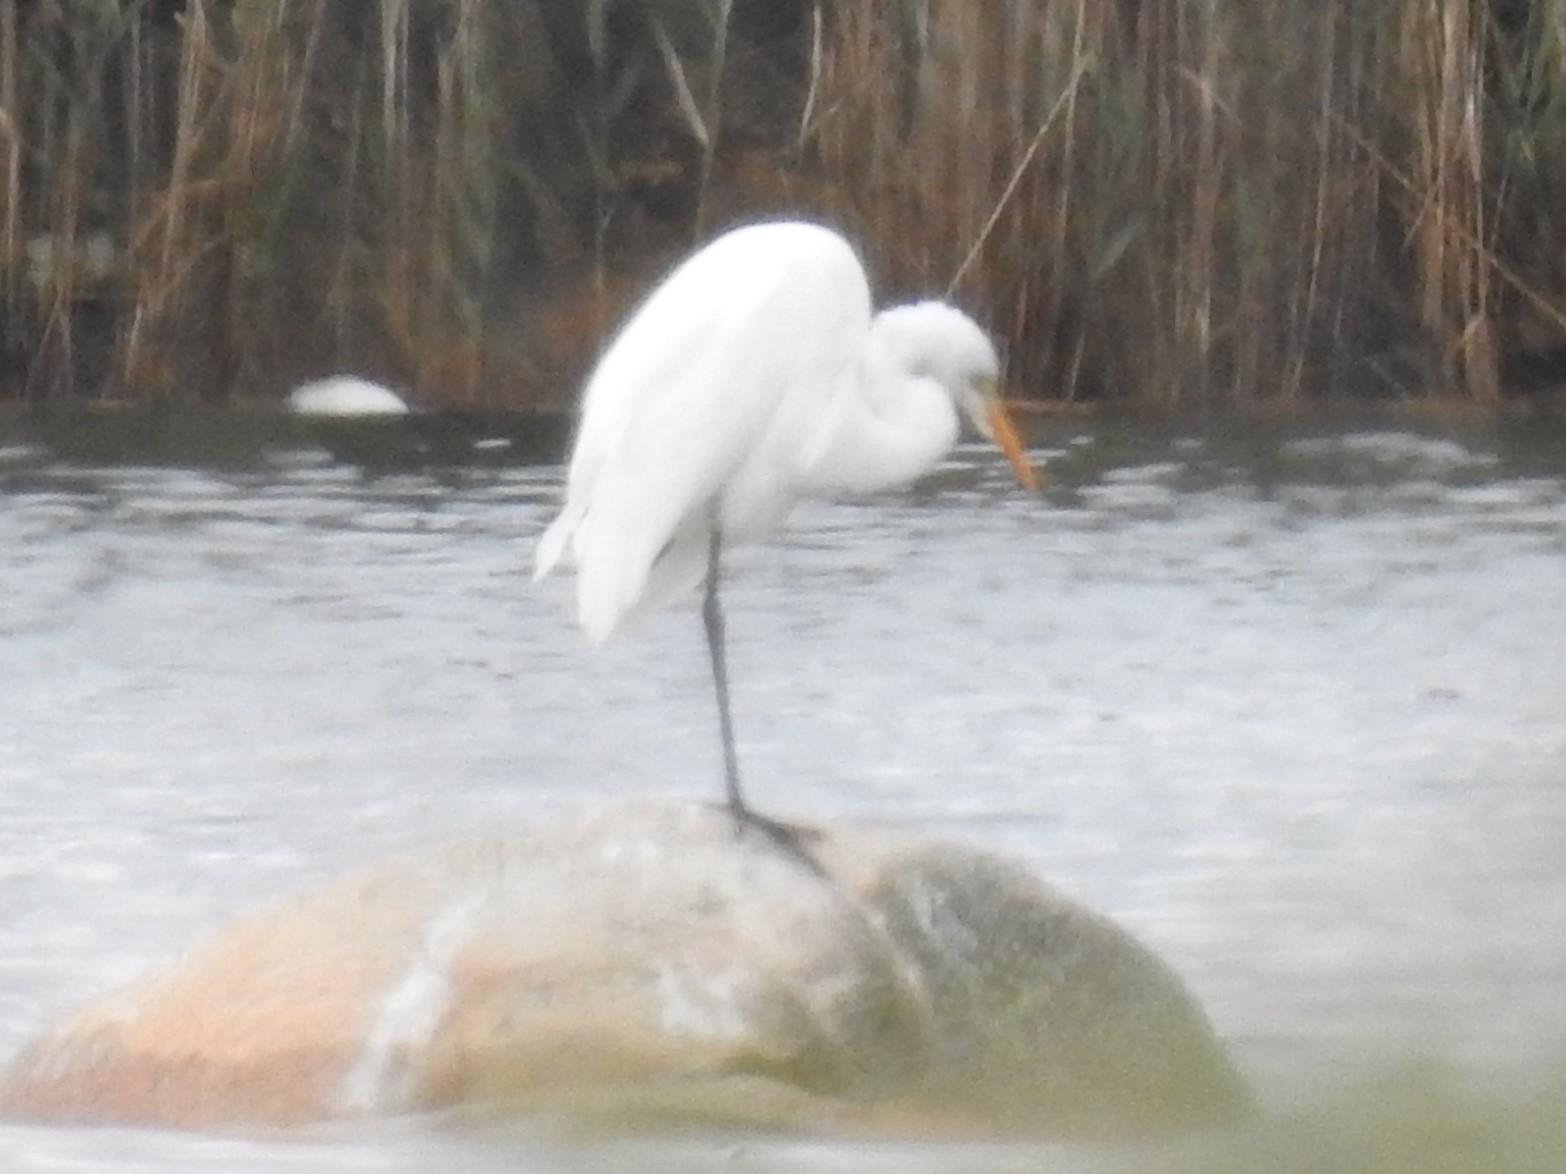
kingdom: Animalia
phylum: Chordata
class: Aves
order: Pelecaniformes
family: Ardeidae
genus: Ardea
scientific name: Ardea alba
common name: Great egret
